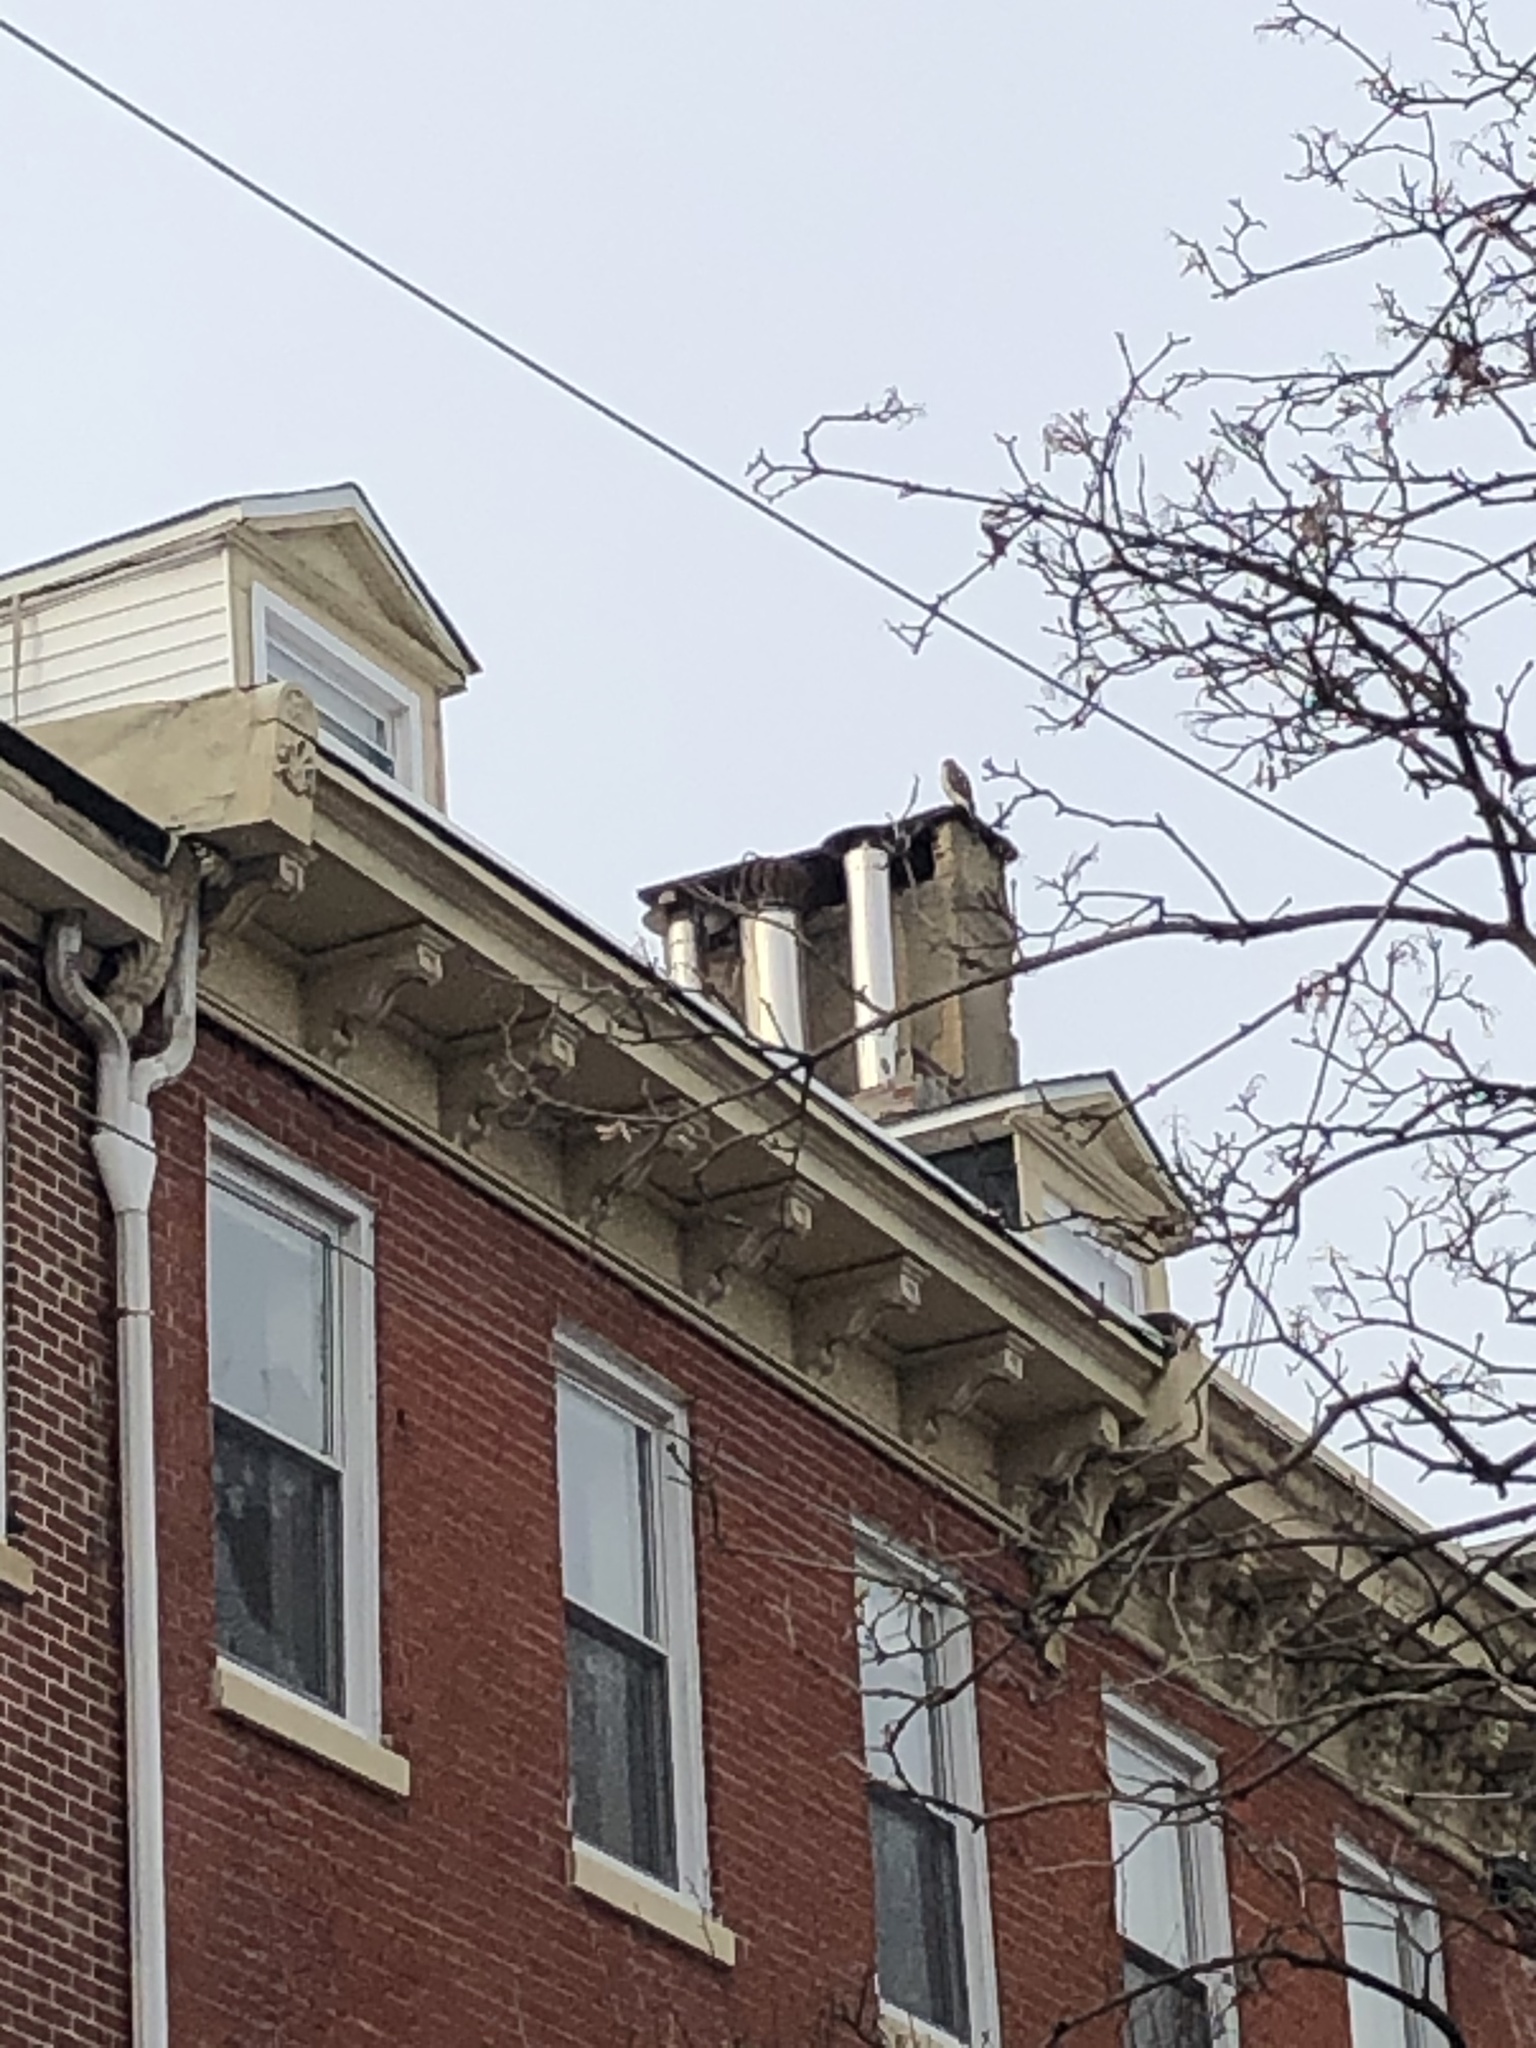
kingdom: Animalia
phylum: Chordata
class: Aves
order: Accipitriformes
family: Accipitridae
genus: Accipiter
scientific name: Accipiter cooperii
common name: Cooper's hawk
